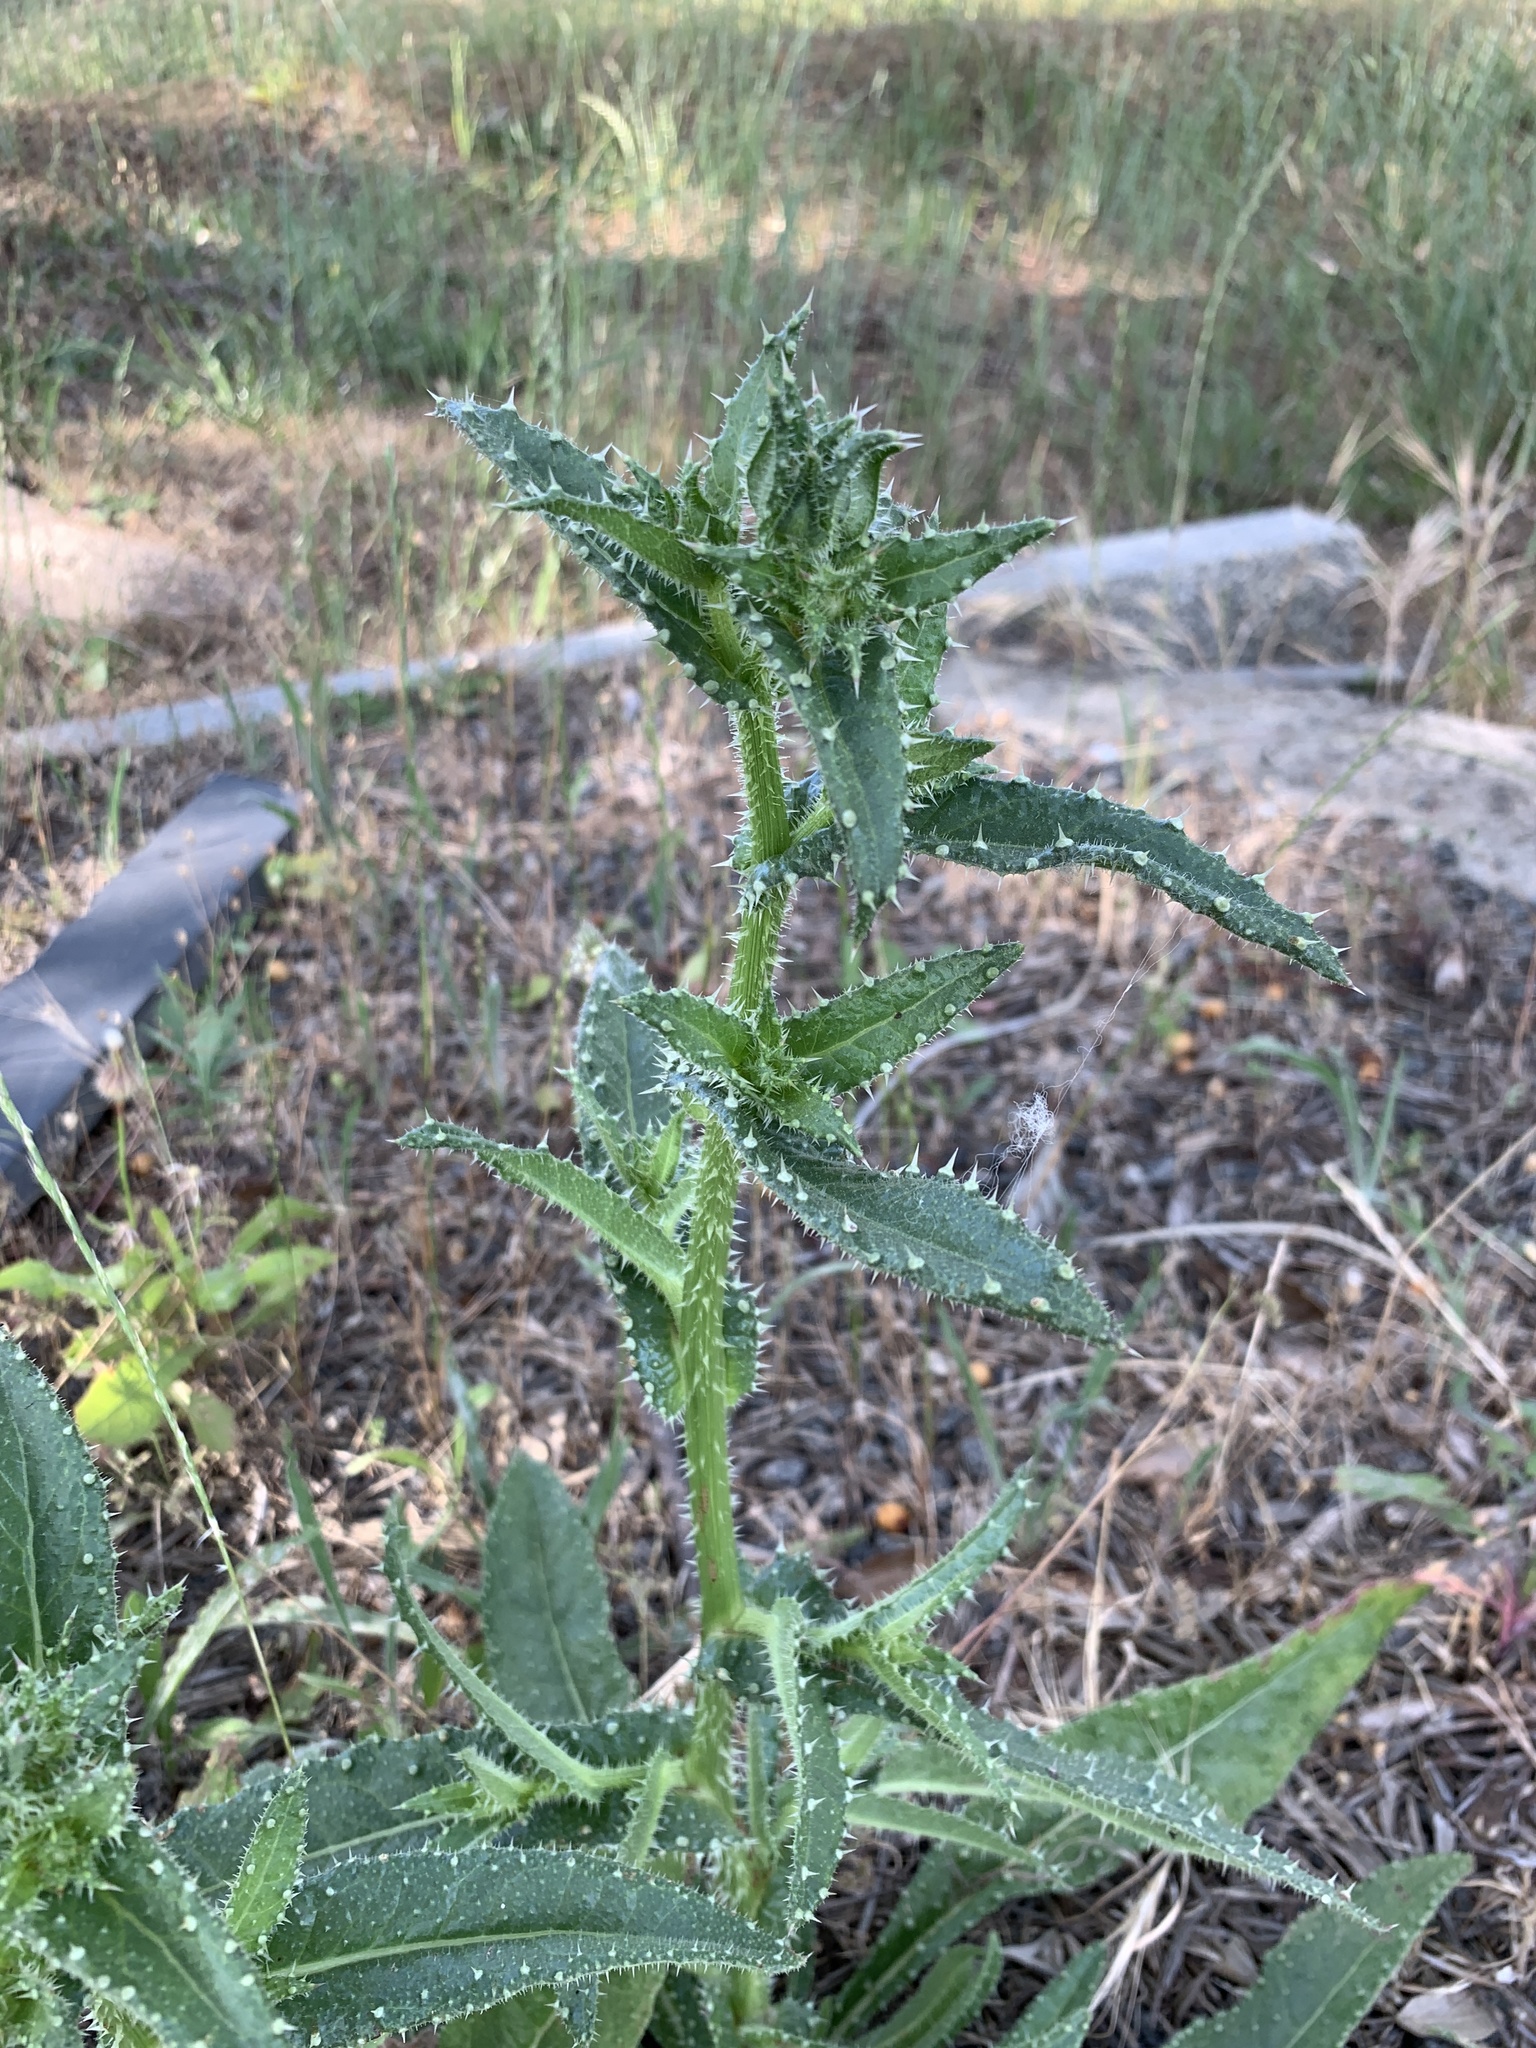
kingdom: Plantae
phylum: Tracheophyta
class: Magnoliopsida
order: Asterales
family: Asteraceae
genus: Helminthotheca
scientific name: Helminthotheca echioides
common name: Ox-tongue
